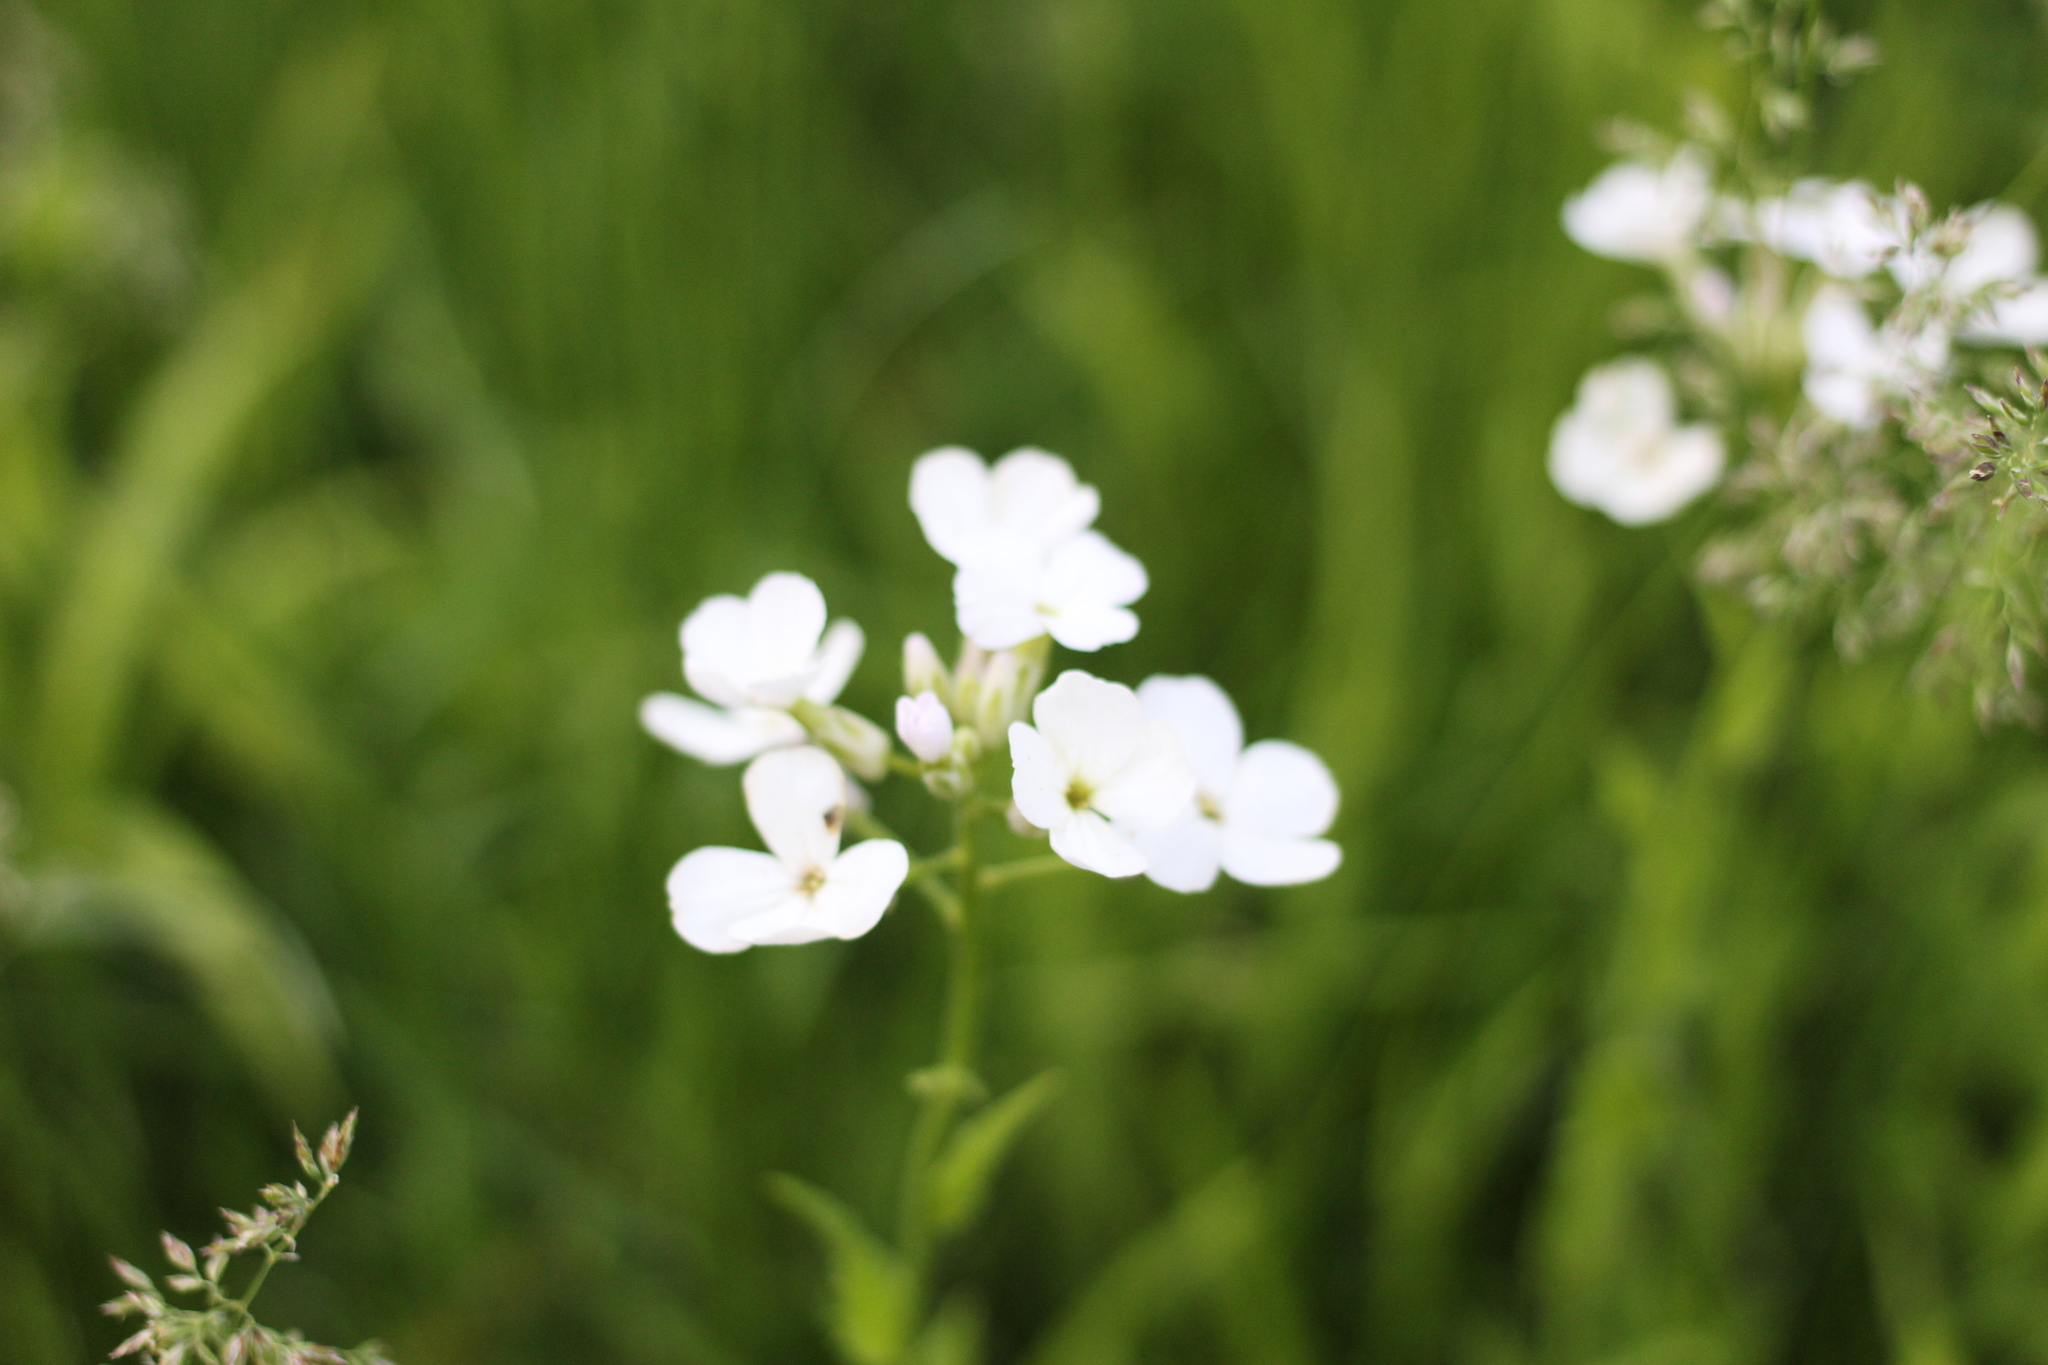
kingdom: Plantae
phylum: Tracheophyta
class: Magnoliopsida
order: Brassicales
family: Brassicaceae
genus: Hesperis
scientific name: Hesperis matronalis
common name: Dame's-violet
